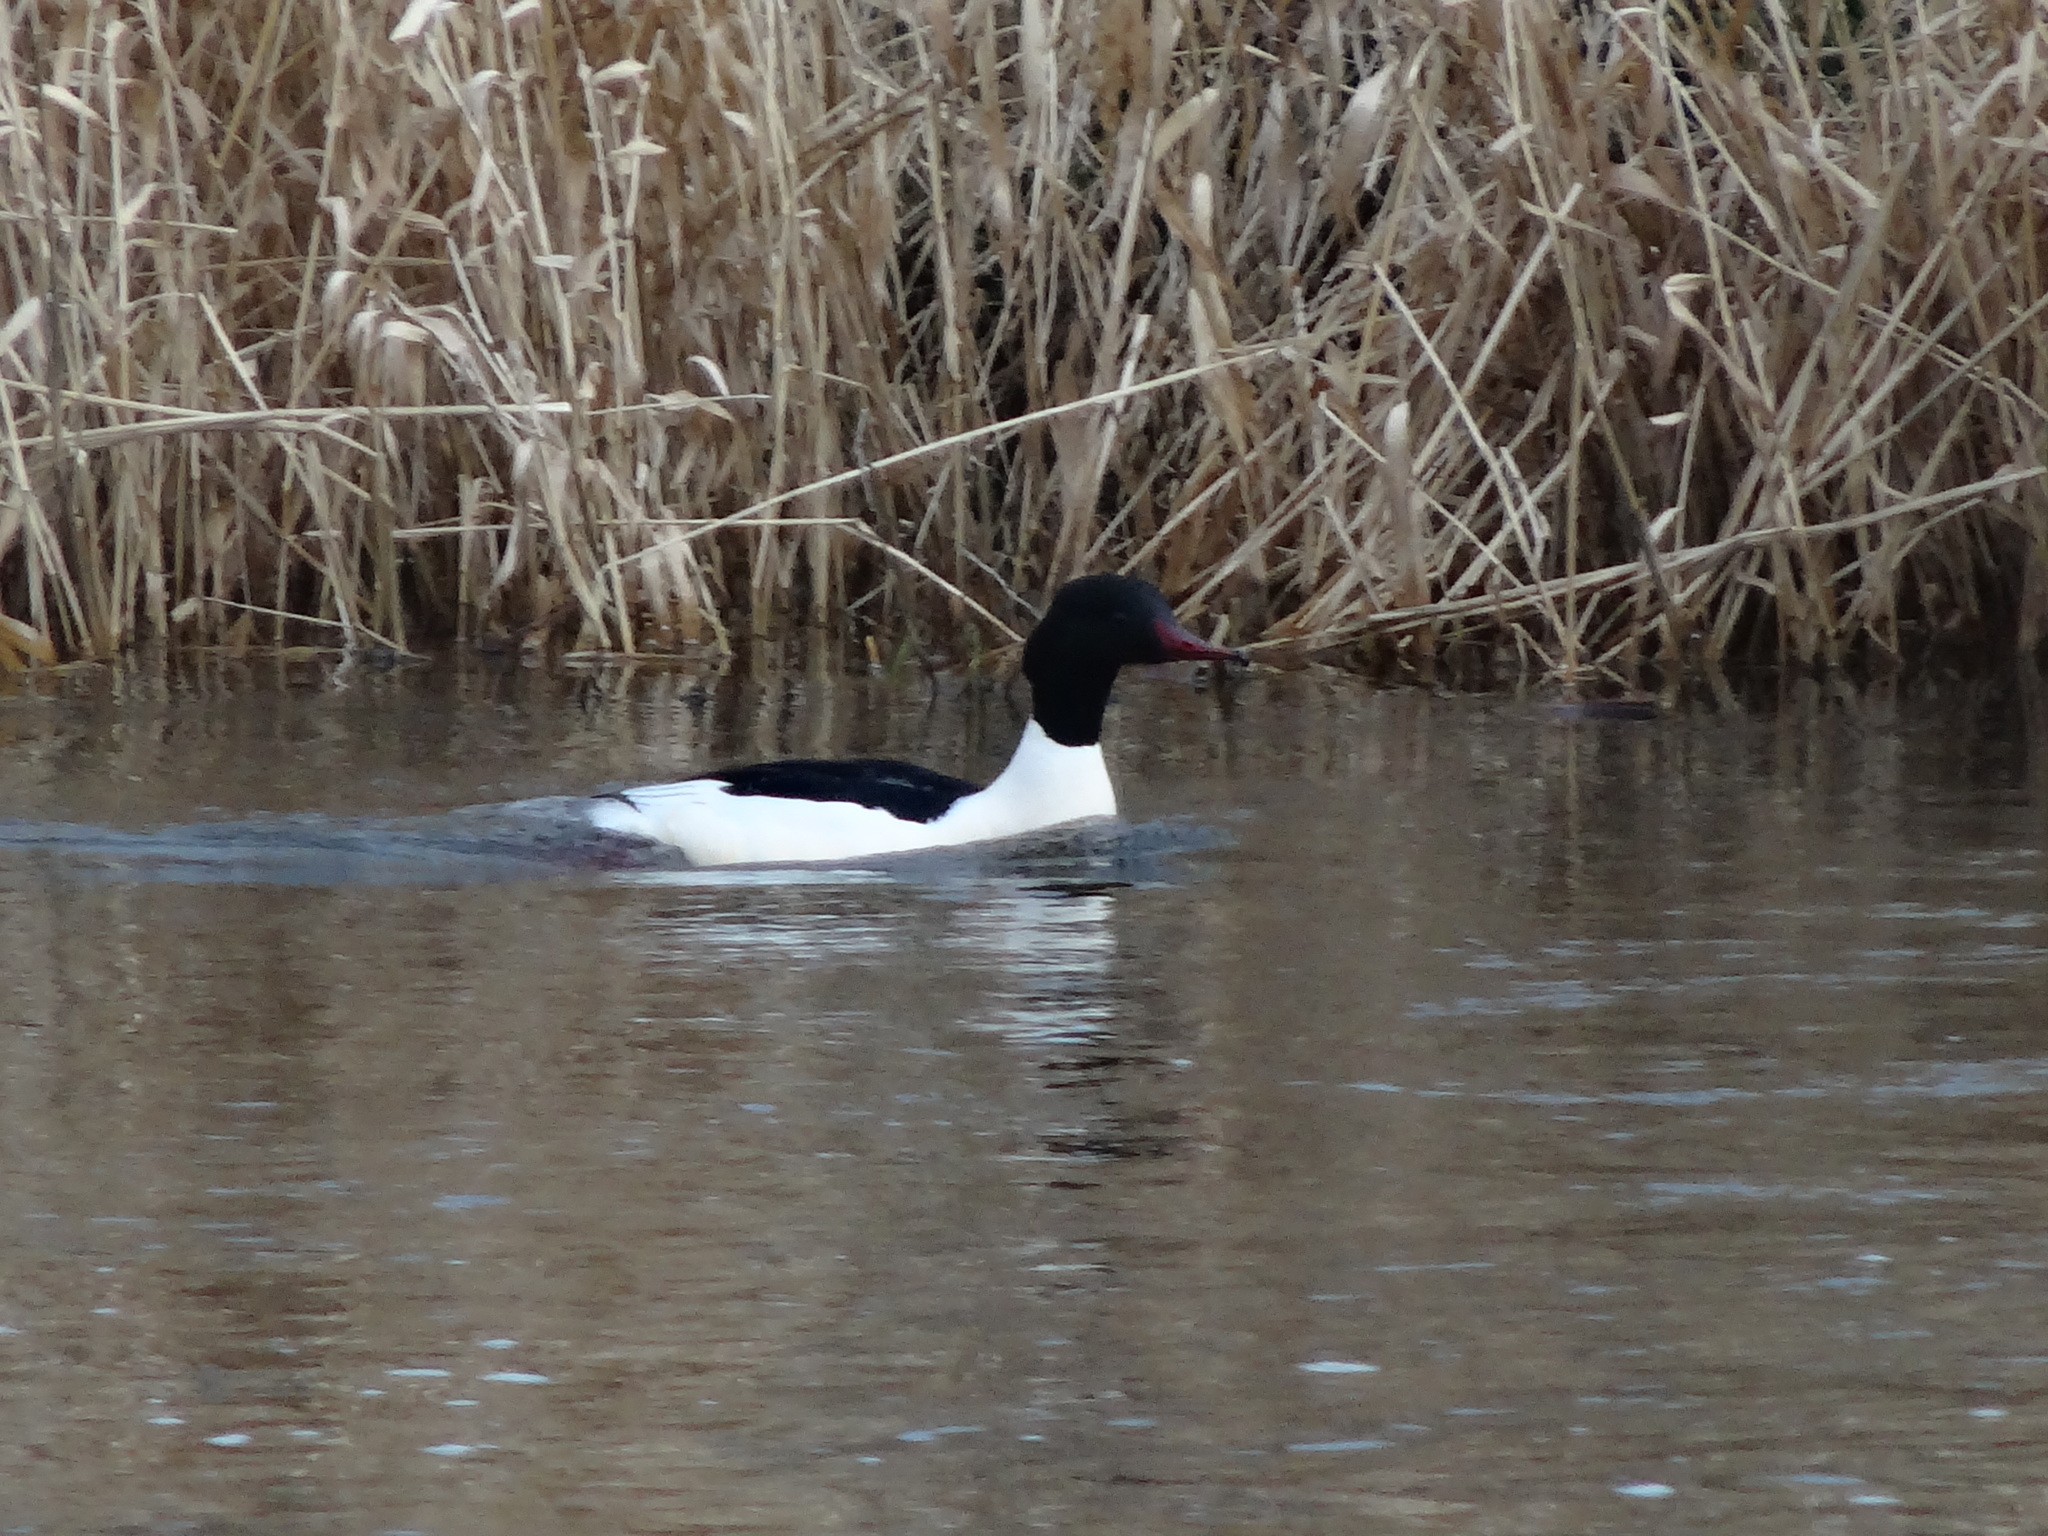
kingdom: Animalia
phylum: Chordata
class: Aves
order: Anseriformes
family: Anatidae
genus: Mergus
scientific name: Mergus merganser
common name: Common merganser
